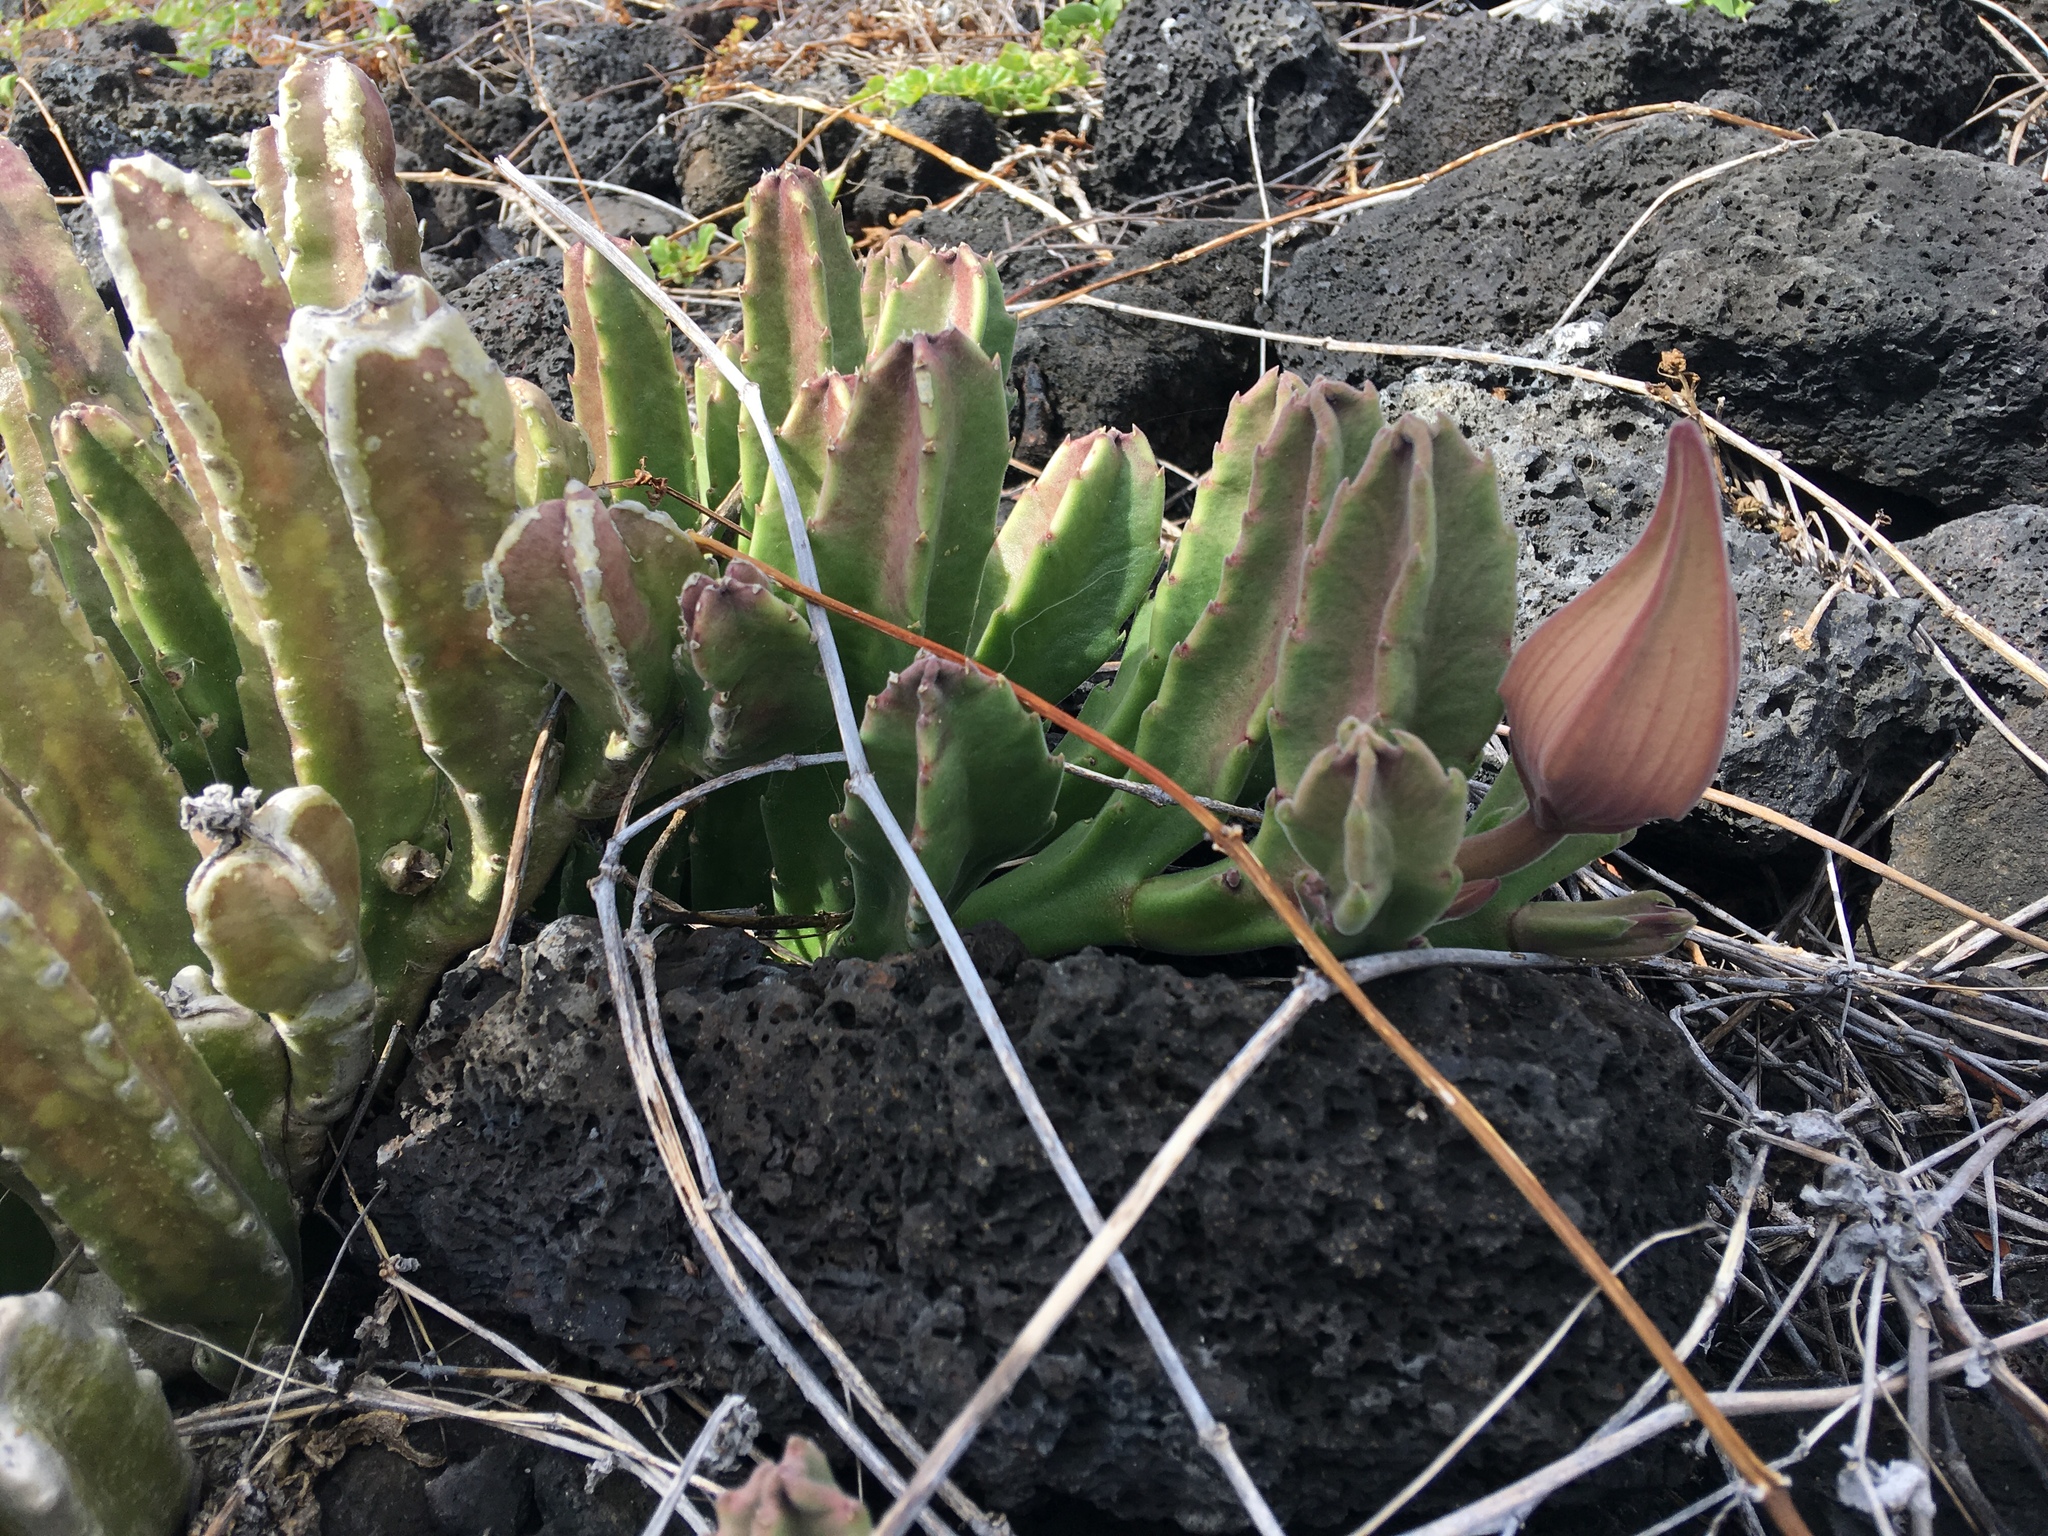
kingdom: Plantae
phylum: Tracheophyta
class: Magnoliopsida
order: Gentianales
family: Apocynaceae
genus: Ceropegia
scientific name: Ceropegia gigantea
